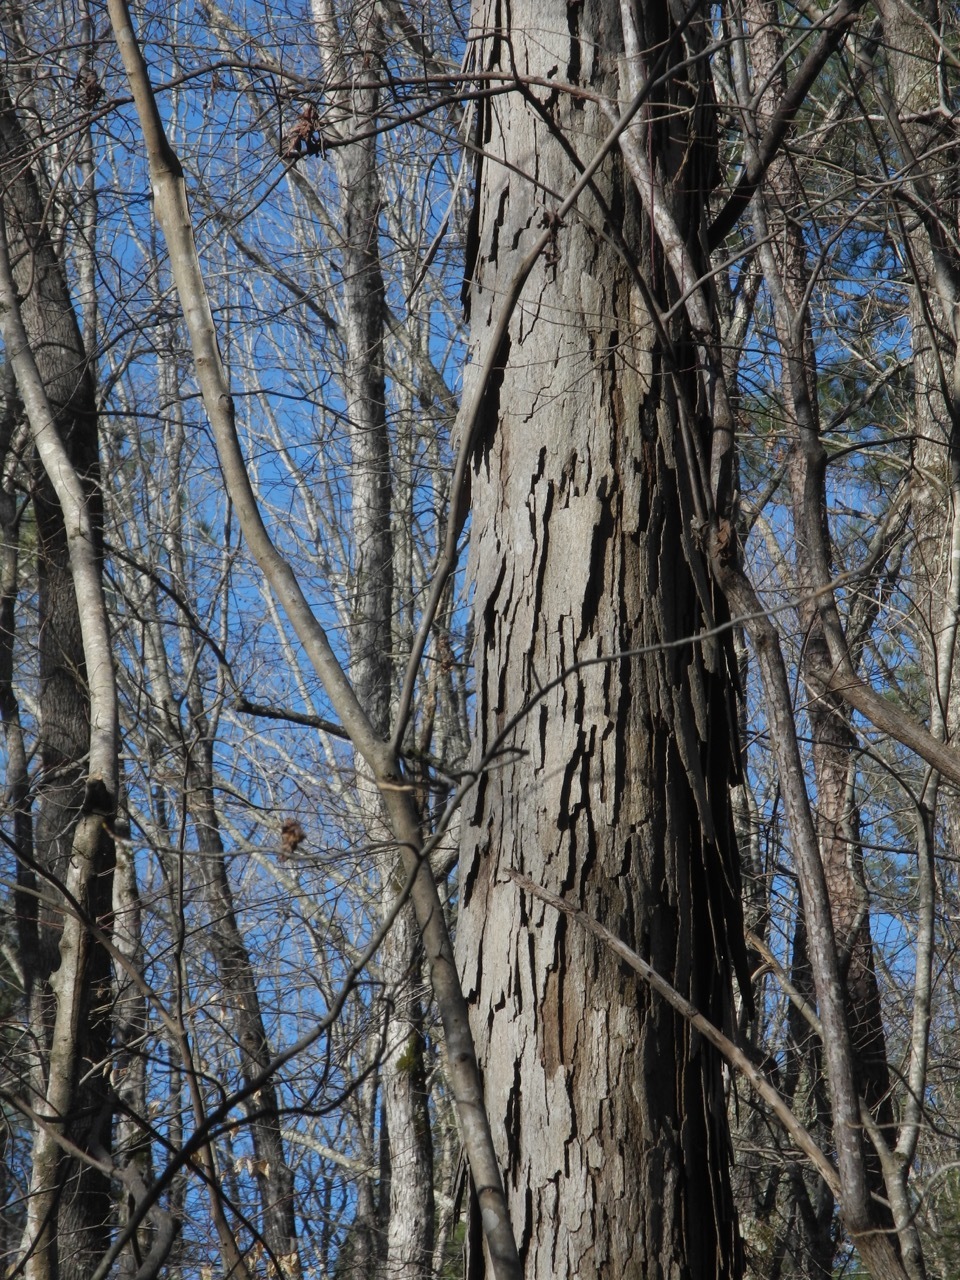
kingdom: Plantae
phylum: Tracheophyta
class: Magnoliopsida
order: Fagales
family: Juglandaceae
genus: Carya
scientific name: Carya ovata
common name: Shagbark hickory
